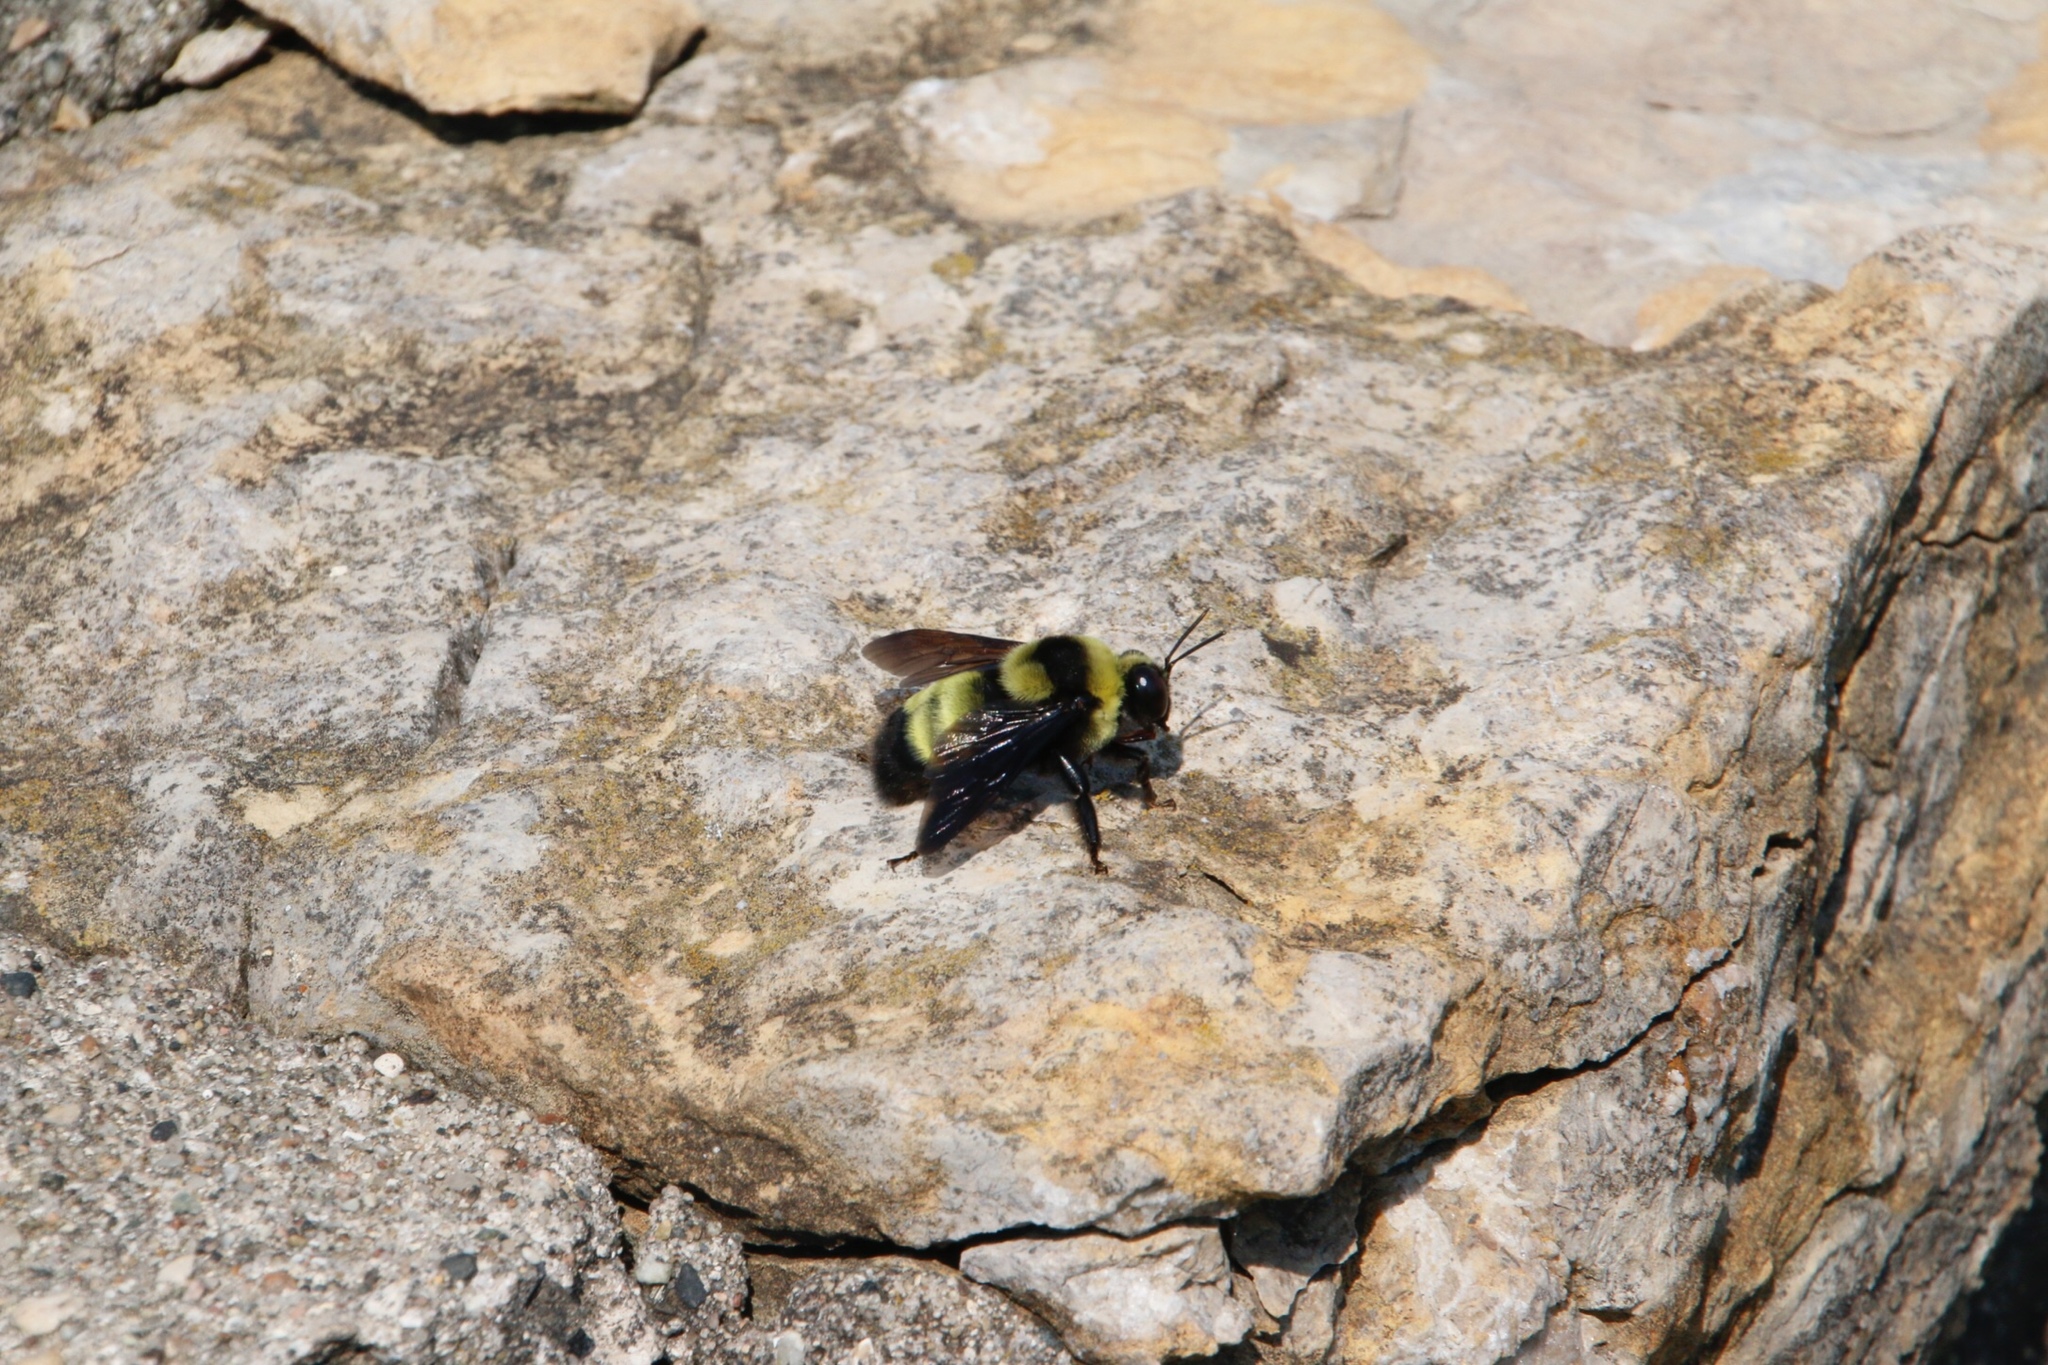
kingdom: Animalia
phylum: Arthropoda
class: Insecta
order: Hymenoptera
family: Apidae
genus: Bombus
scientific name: Bombus auricomus
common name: Black and gold bumble bee
